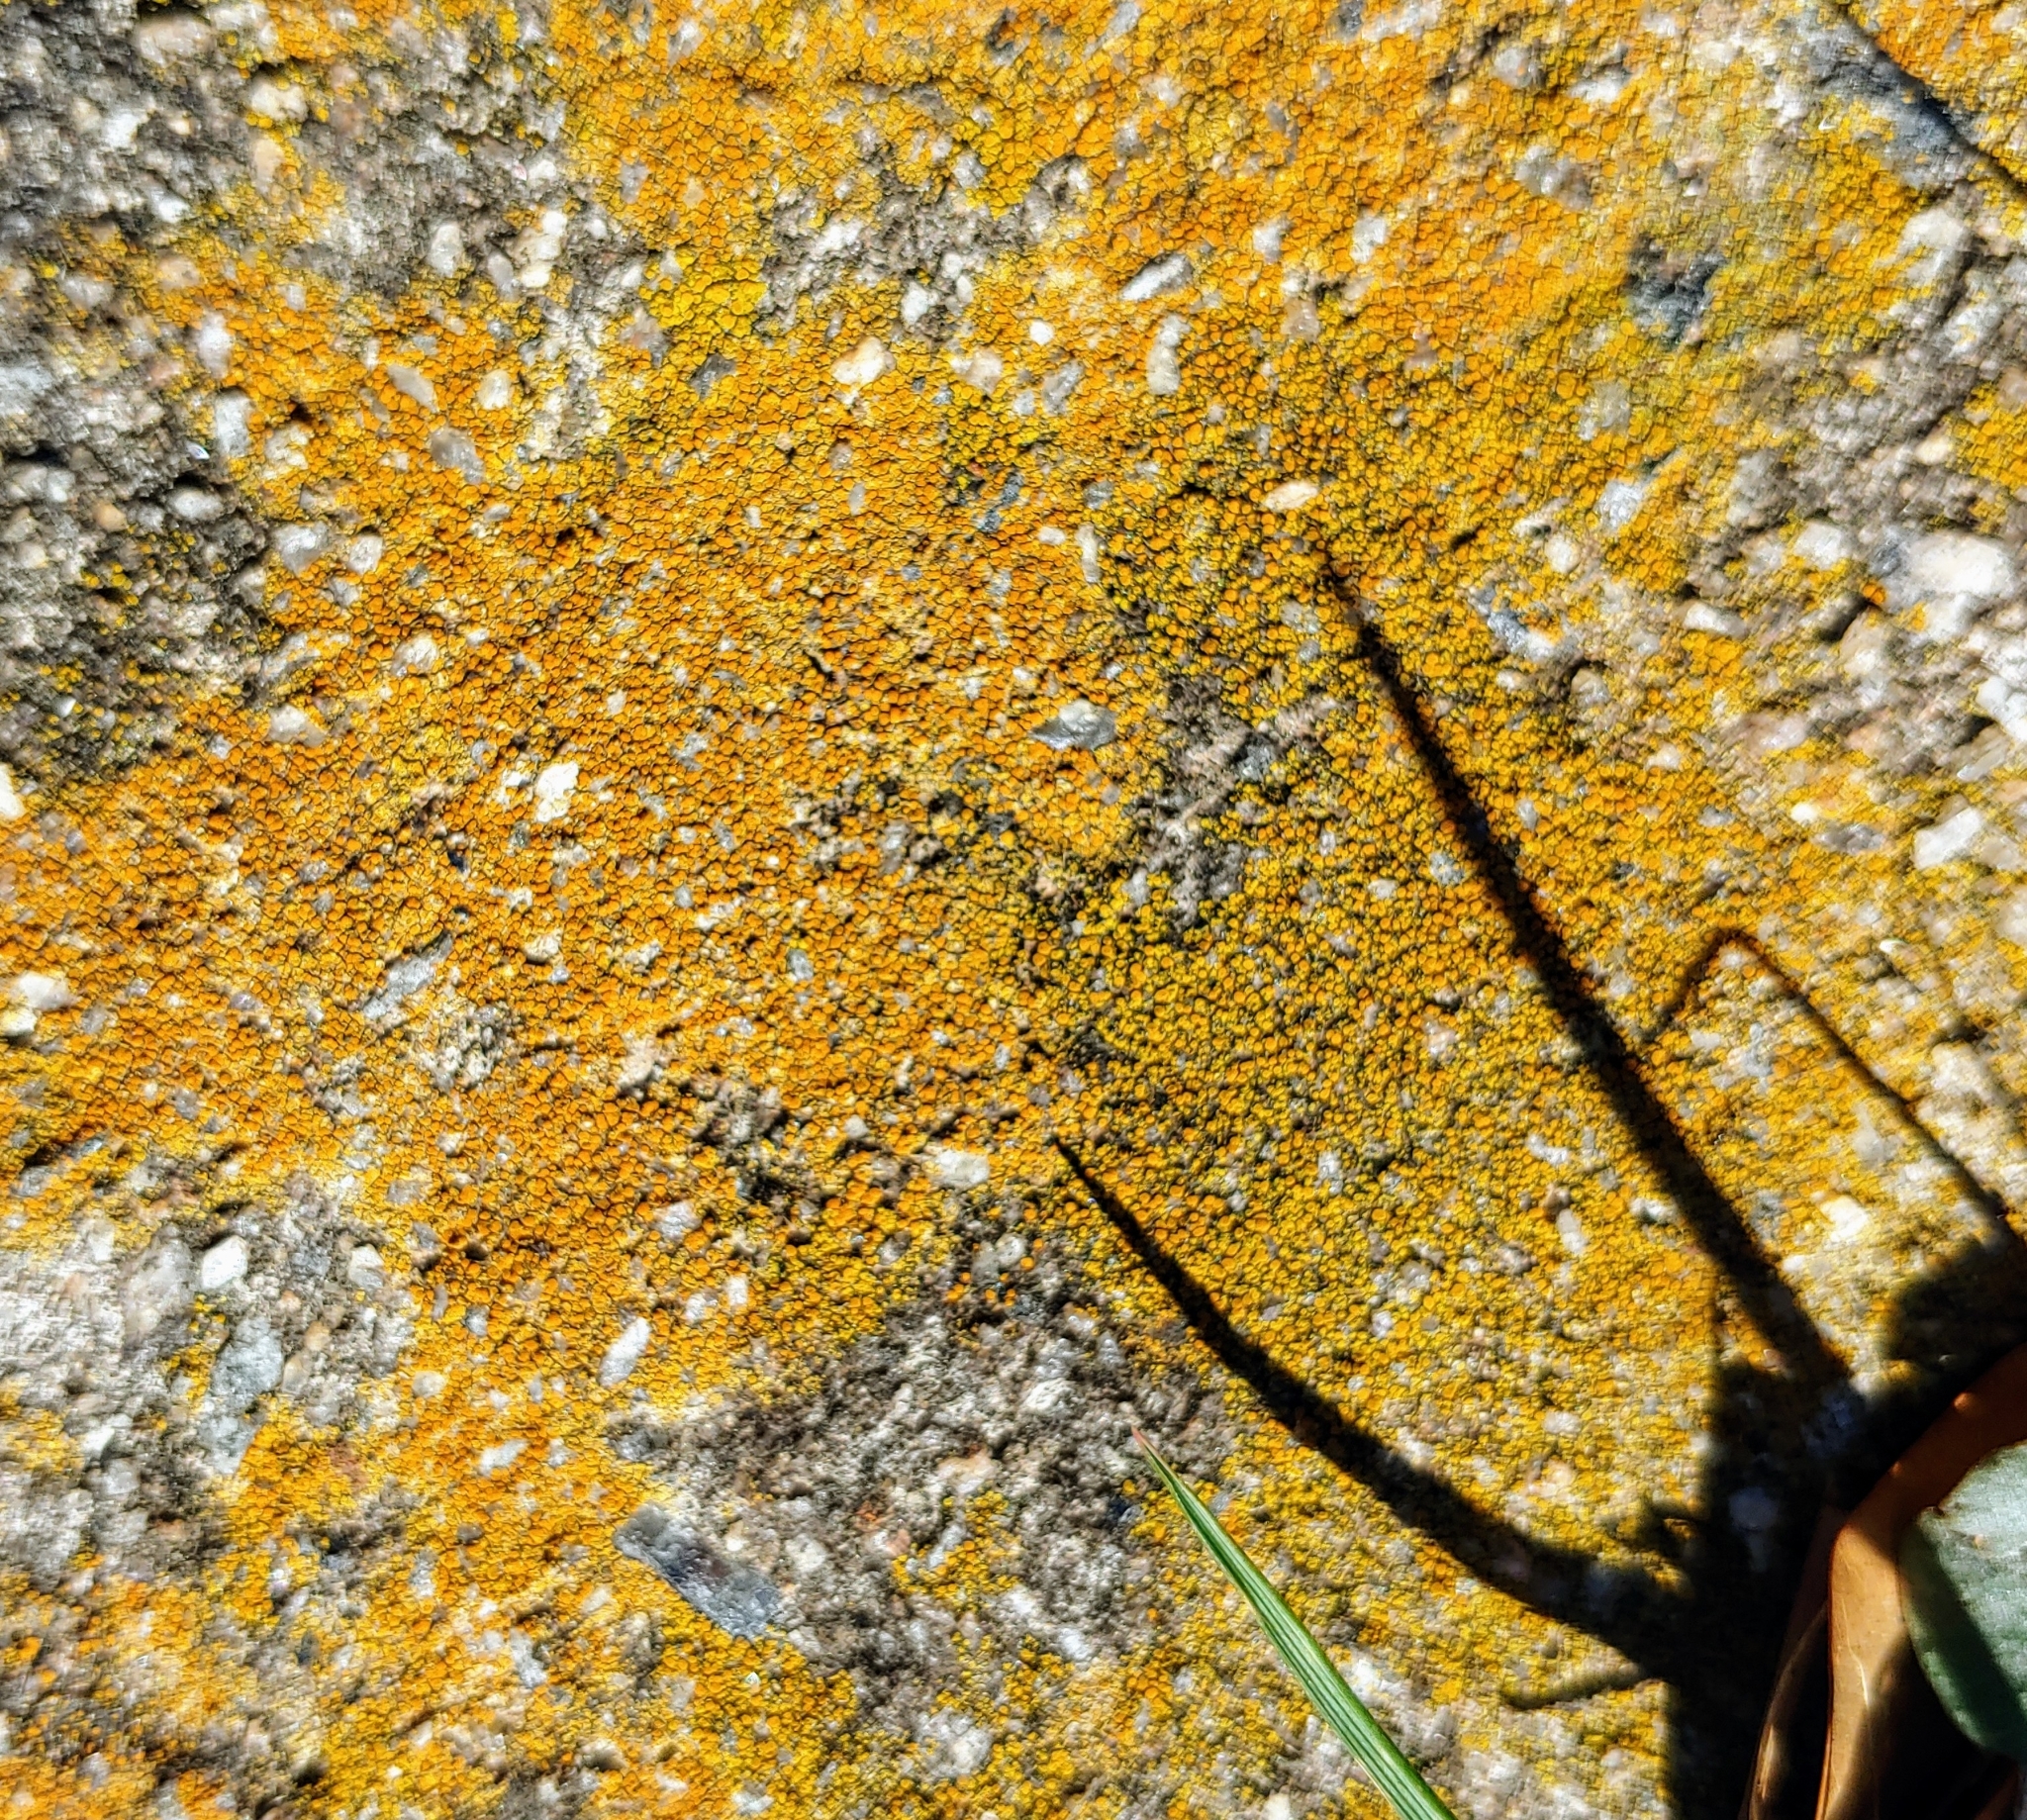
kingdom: Fungi
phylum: Ascomycota
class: Lecanoromycetes
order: Teloschistales
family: Teloschistaceae
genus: Xanthocarpia
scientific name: Xanthocarpia feracissima
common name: Sidewalk firedot
